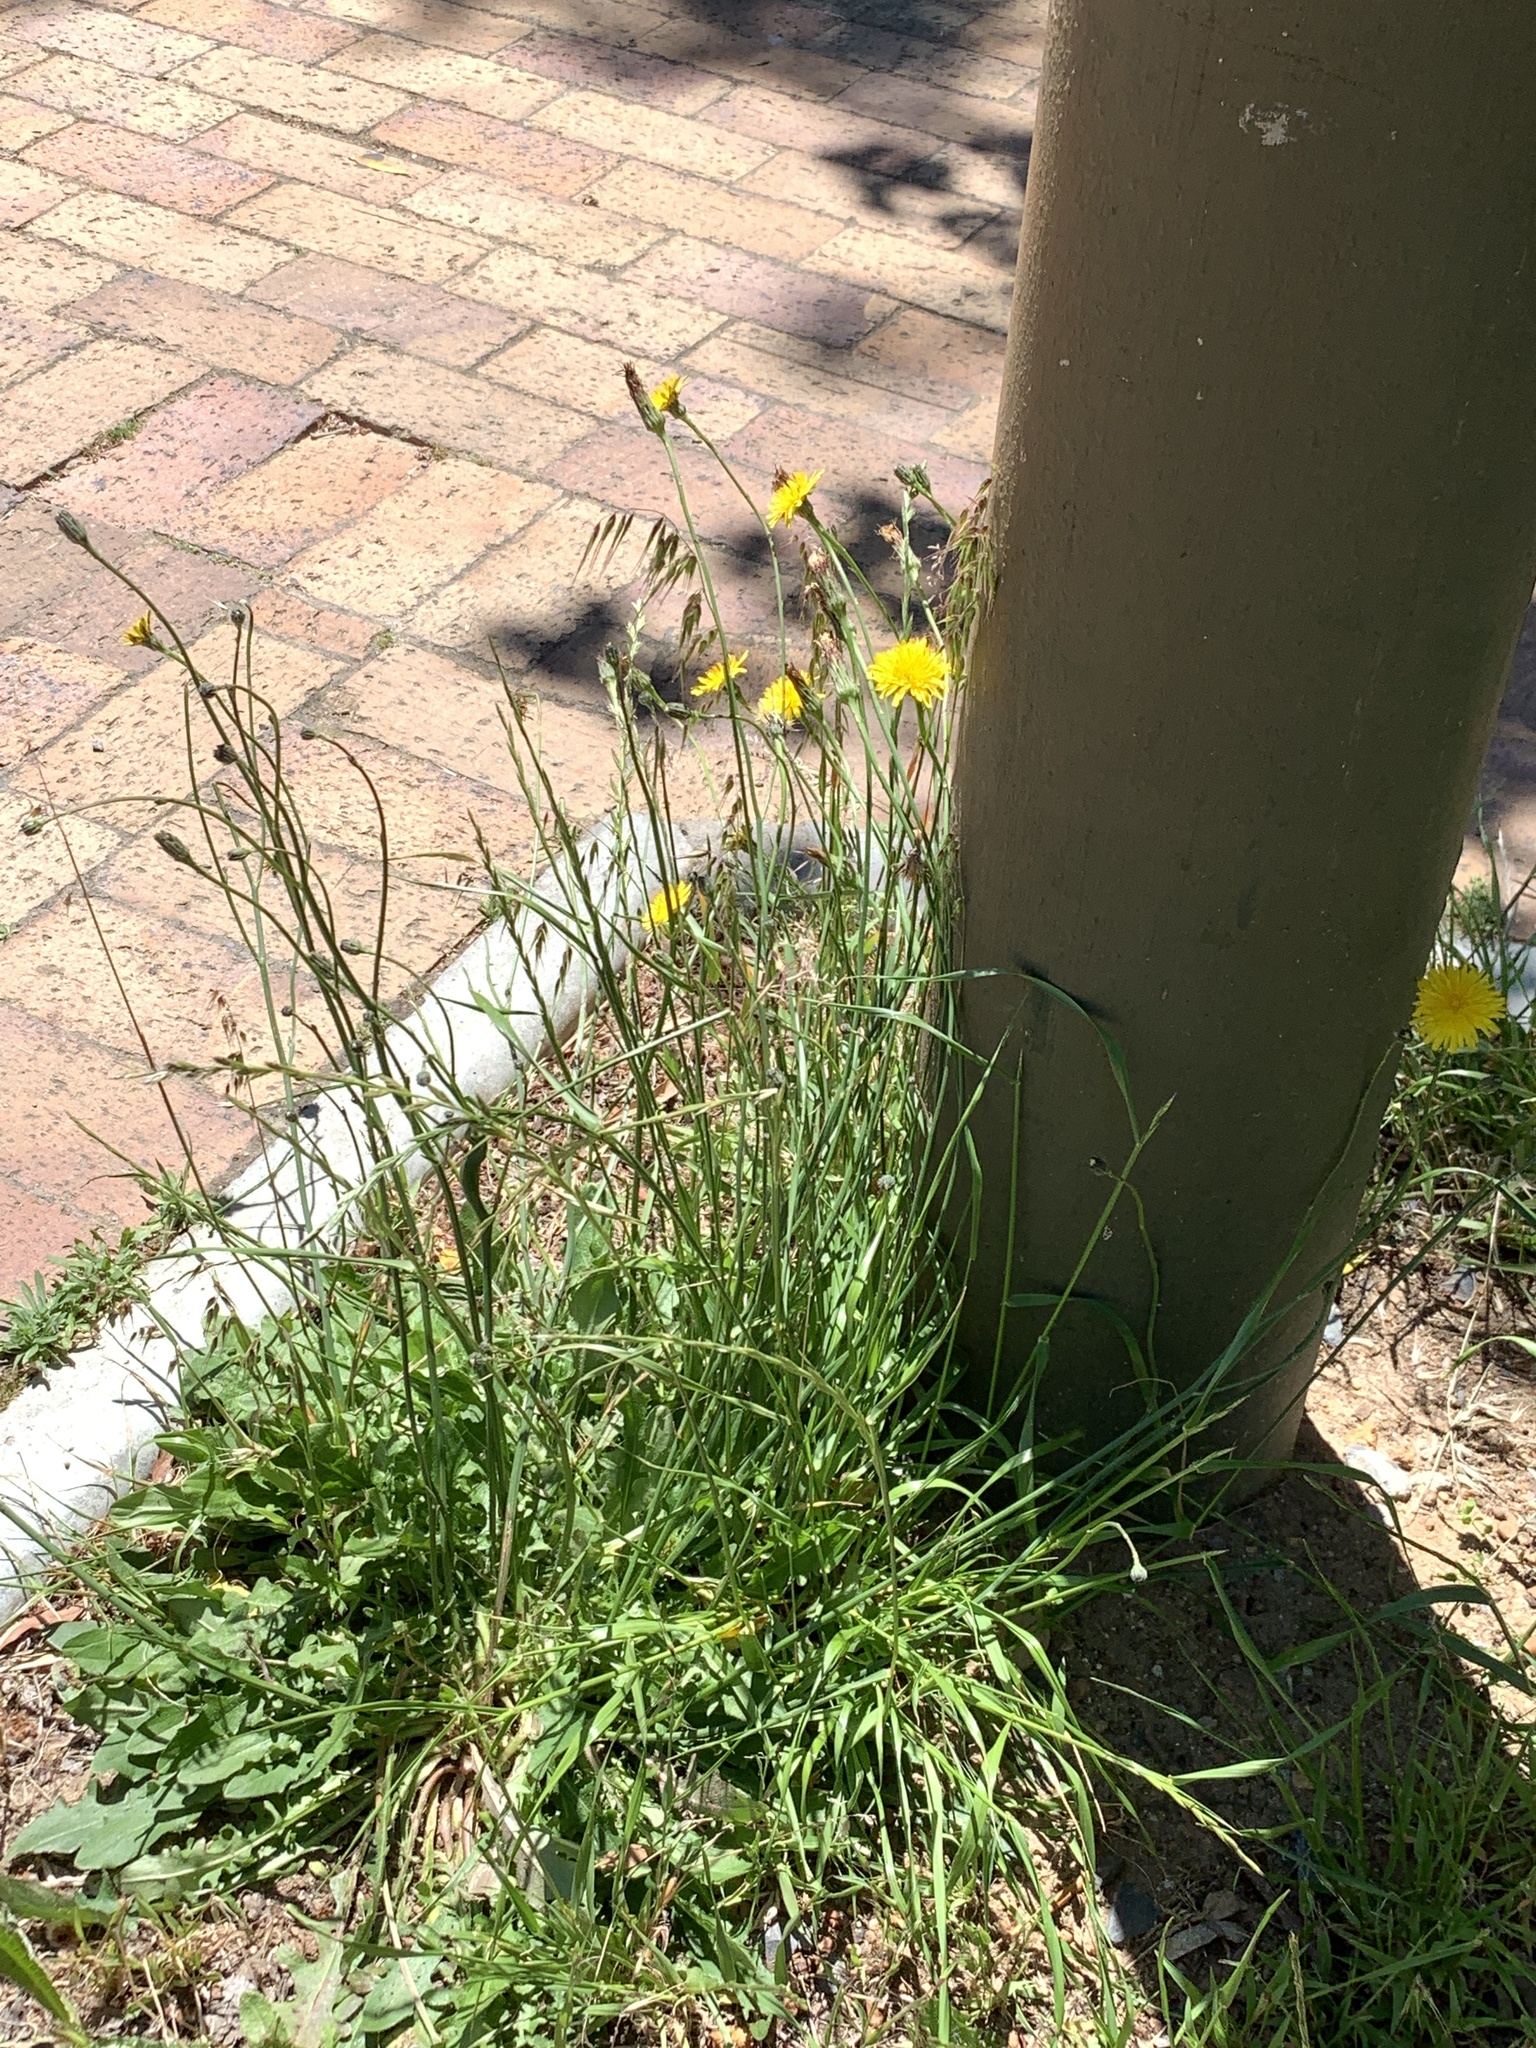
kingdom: Plantae
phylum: Tracheophyta
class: Magnoliopsida
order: Asterales
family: Asteraceae
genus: Hypochaeris
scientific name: Hypochaeris radicata
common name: Flatweed
